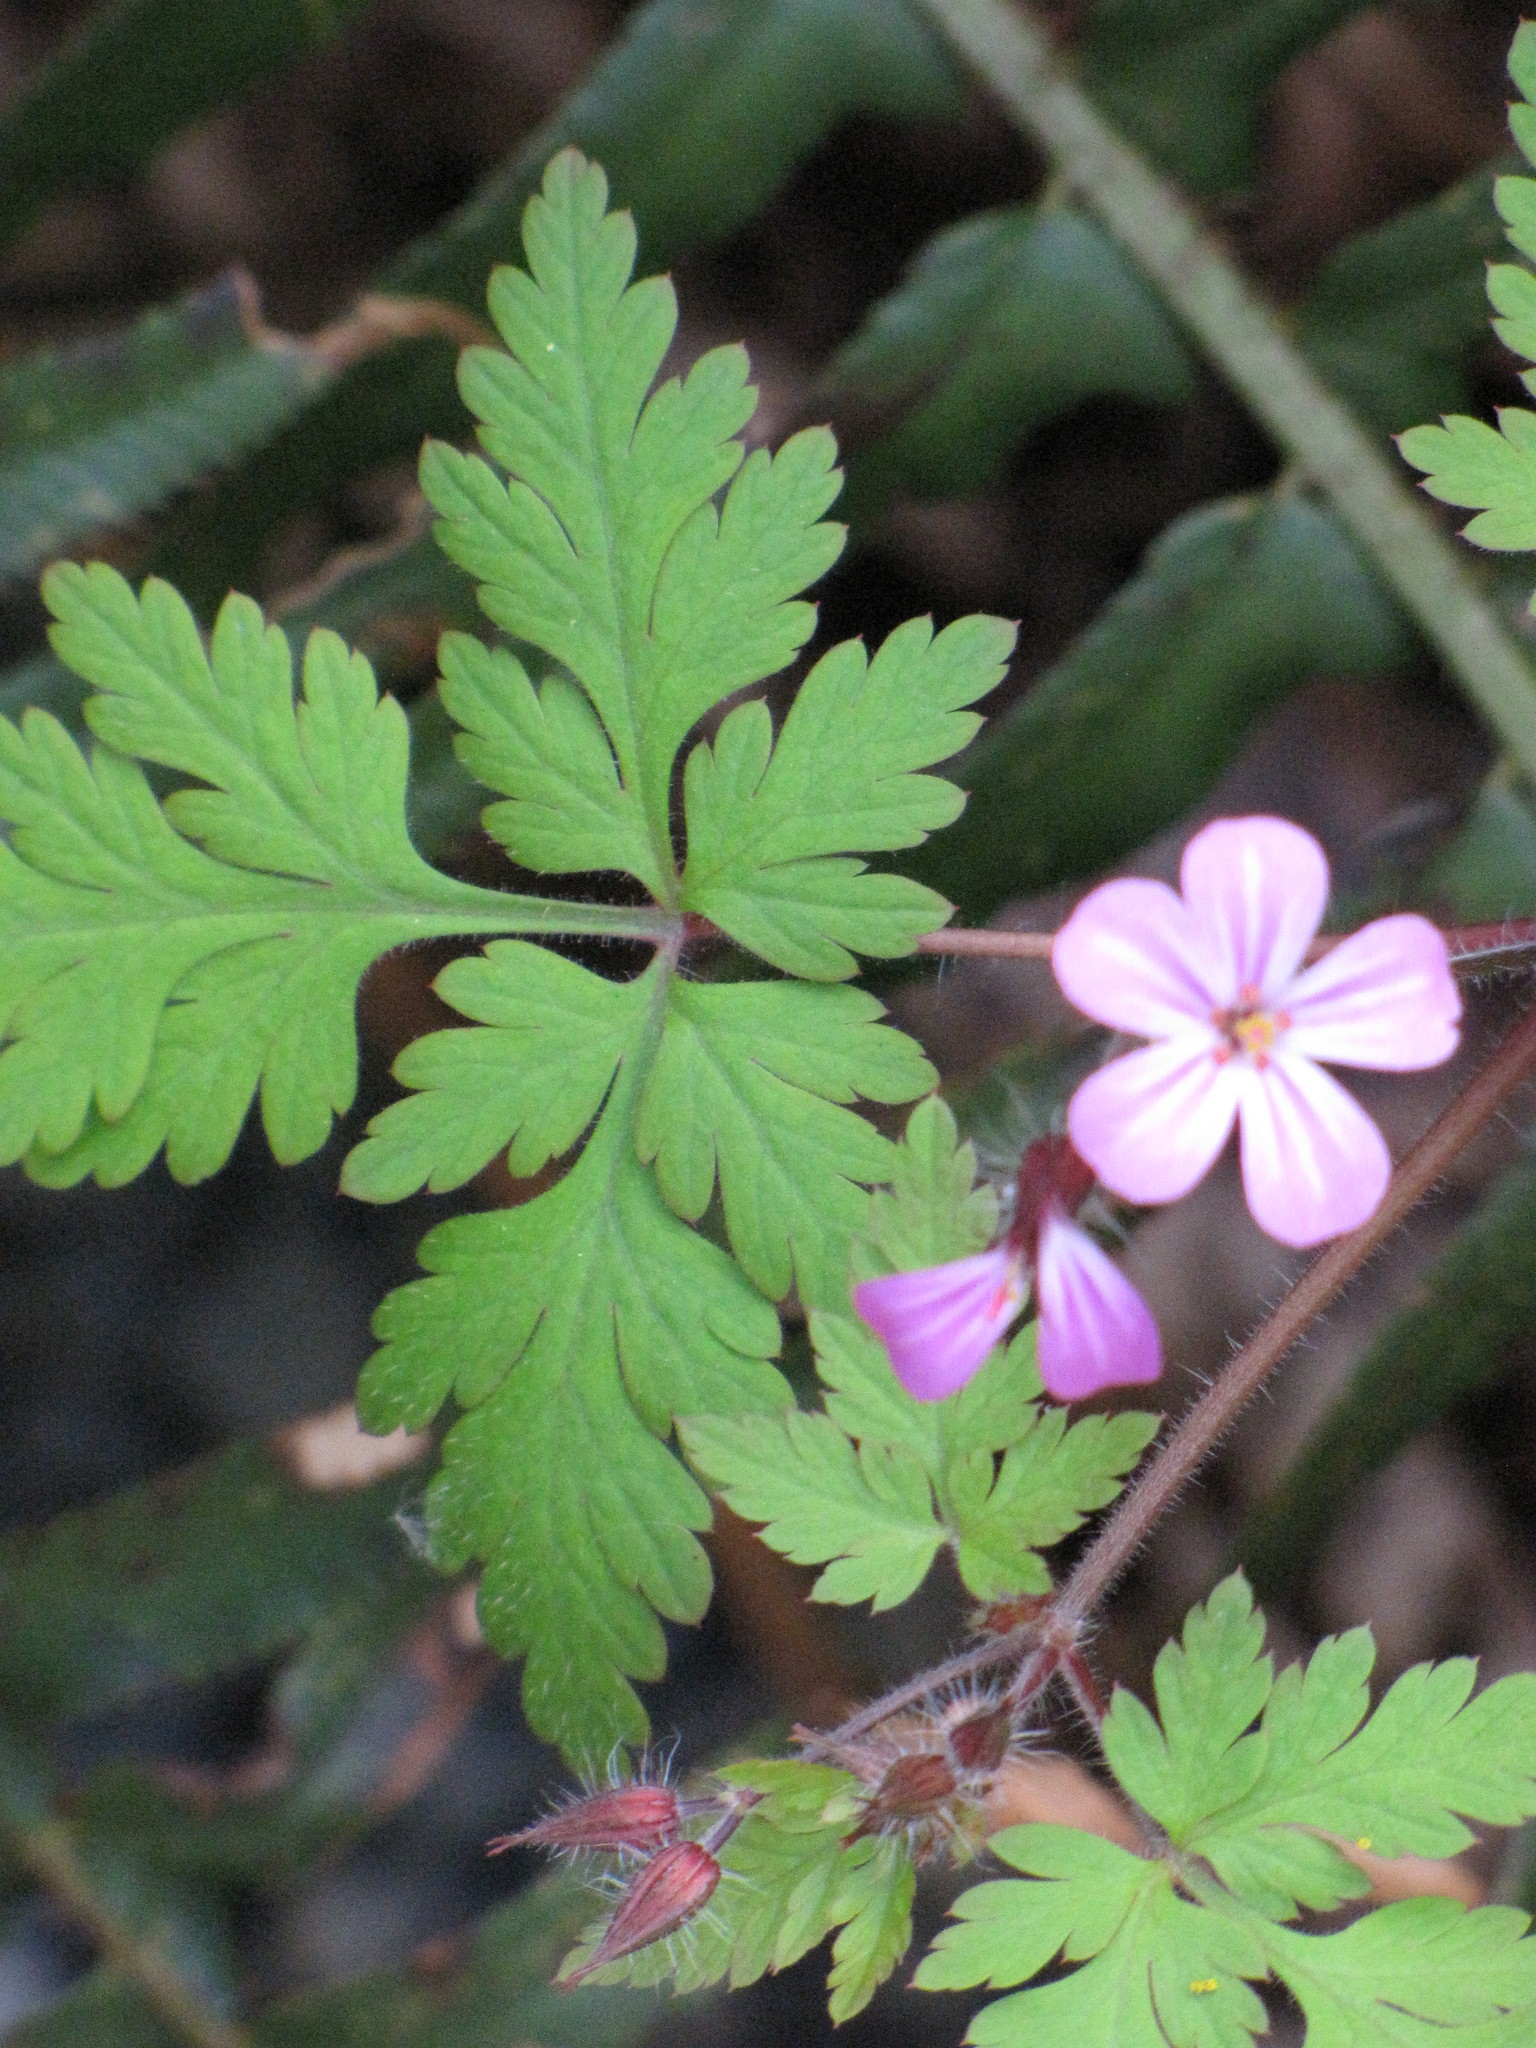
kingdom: Plantae
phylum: Tracheophyta
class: Magnoliopsida
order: Geraniales
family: Geraniaceae
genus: Geranium
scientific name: Geranium robertianum
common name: Herb-robert
